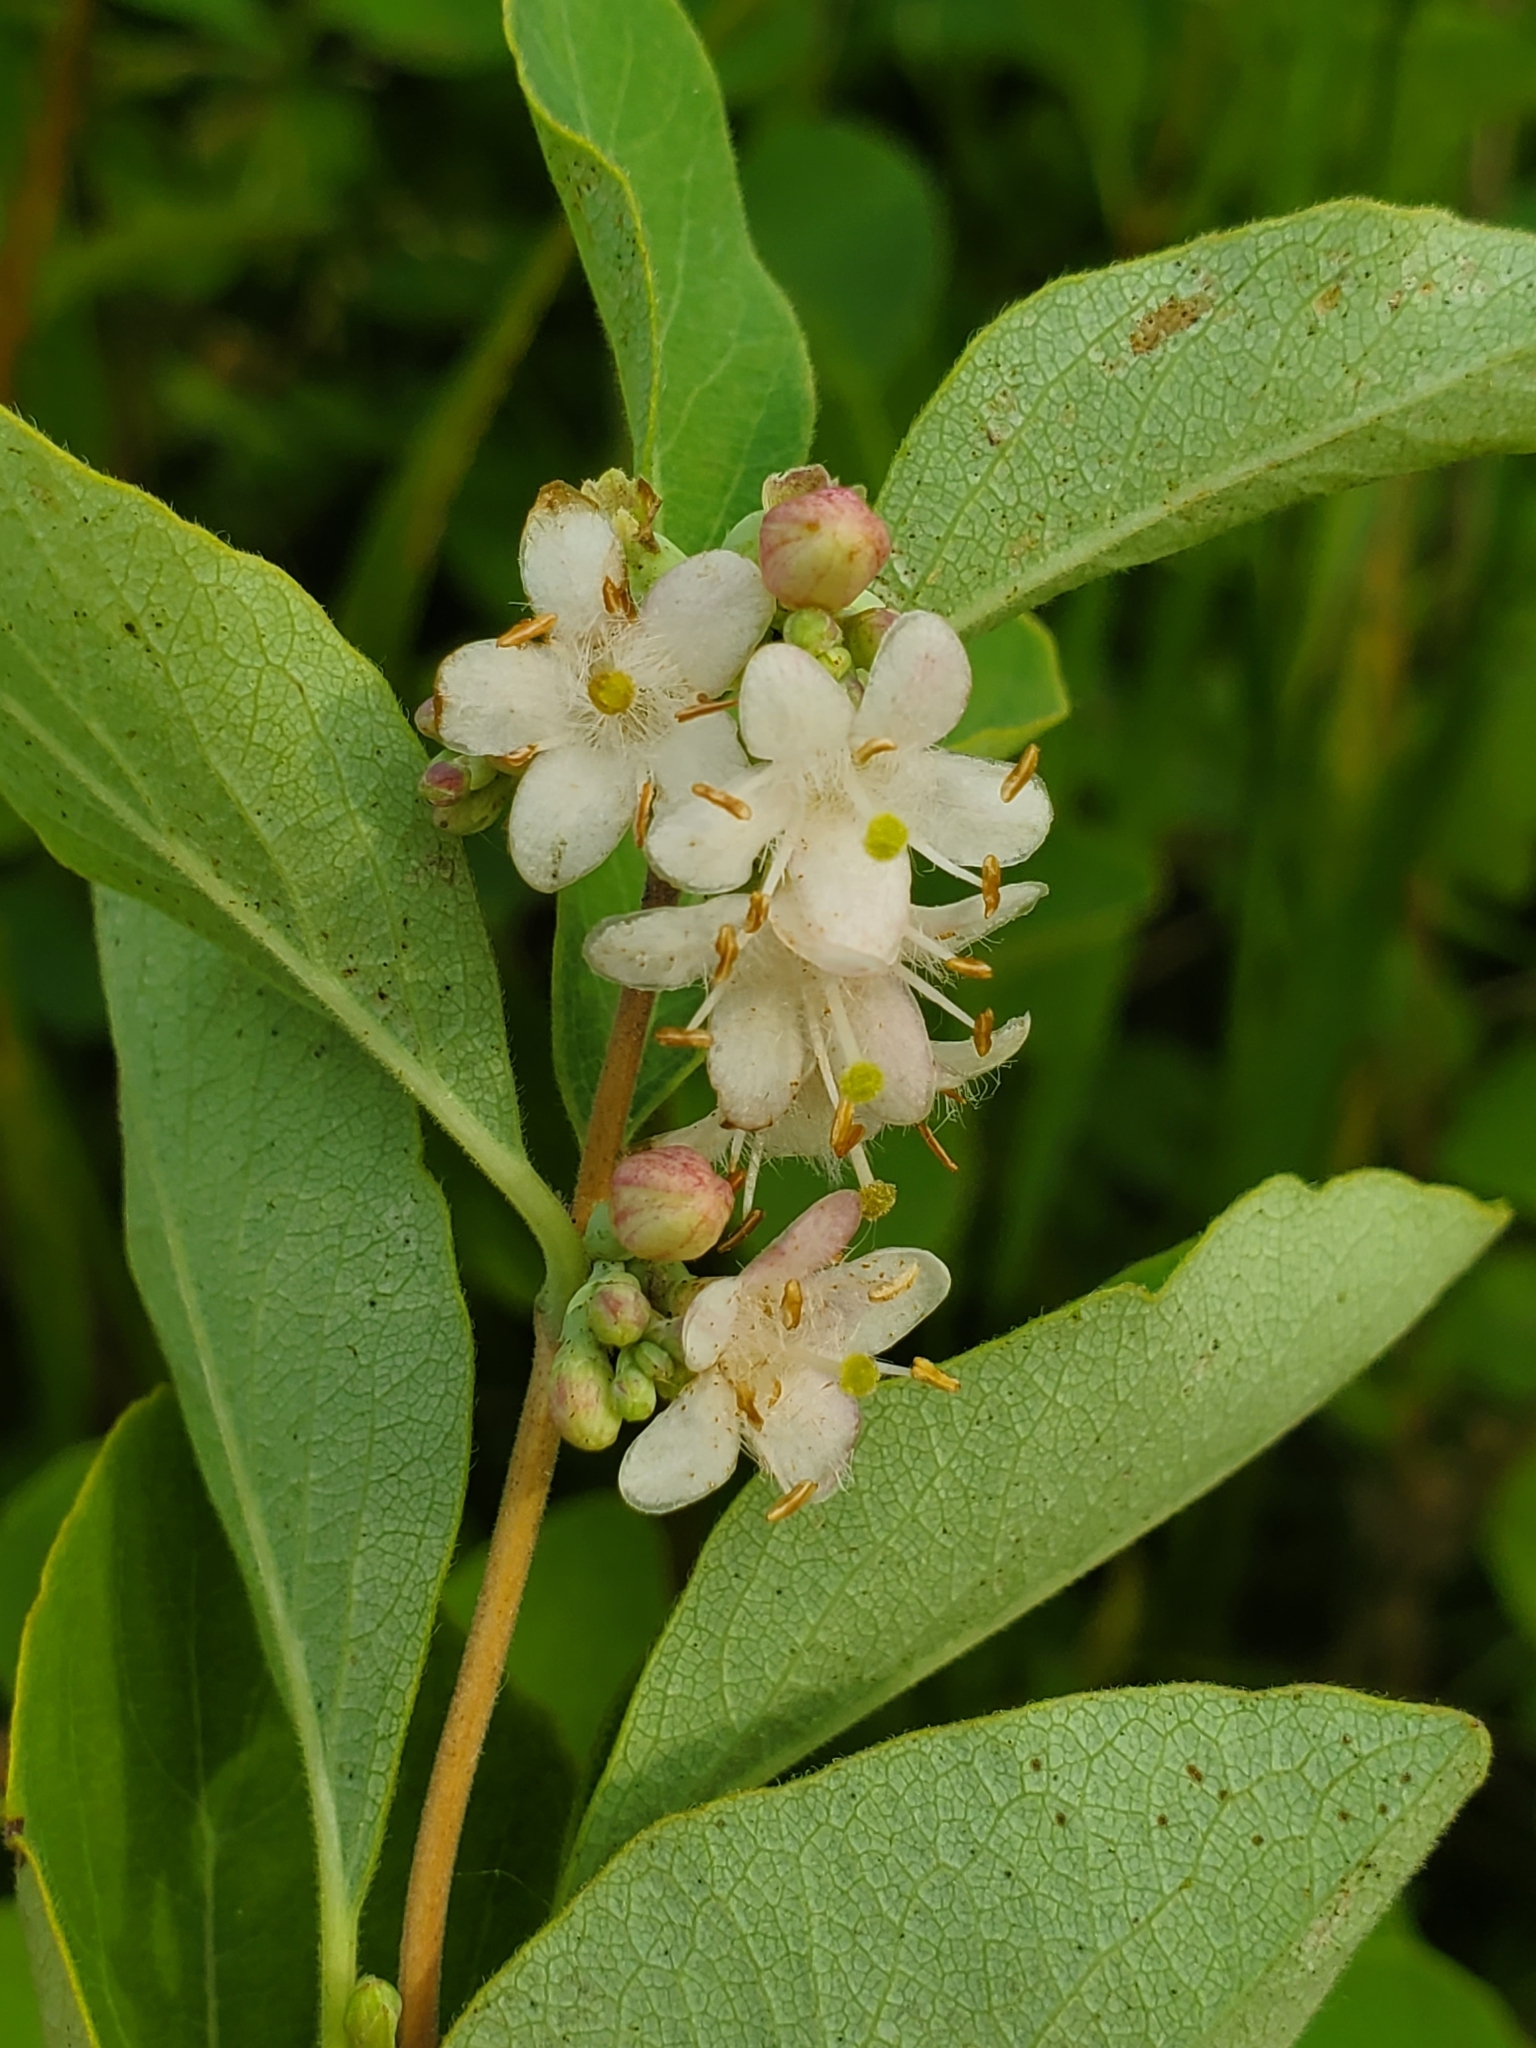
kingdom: Plantae
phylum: Tracheophyta
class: Magnoliopsida
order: Dipsacales
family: Caprifoliaceae
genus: Symphoricarpos
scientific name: Symphoricarpos occidentalis
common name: Wolfberry
